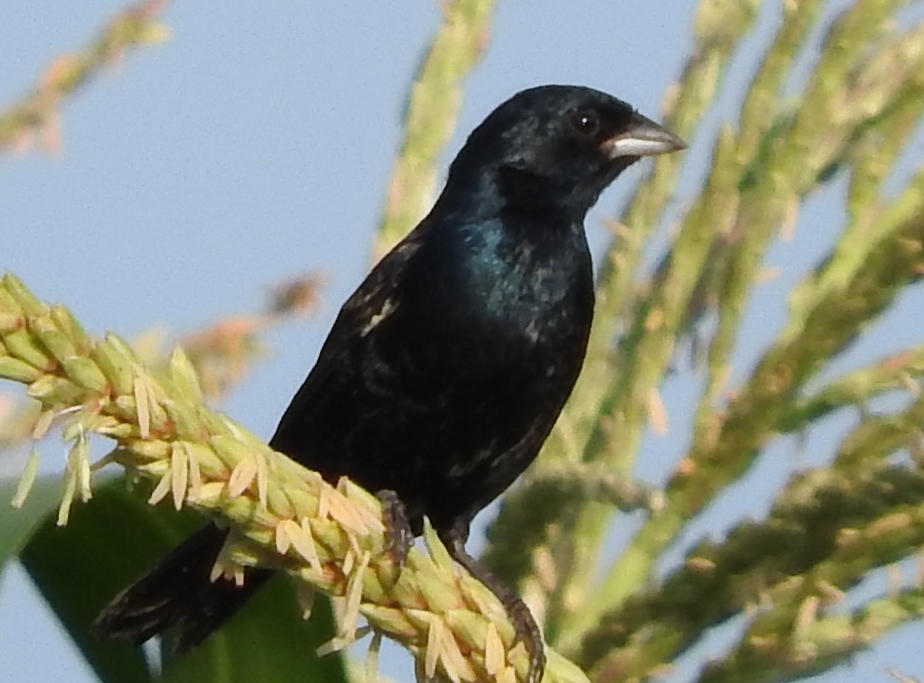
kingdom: Animalia
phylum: Chordata
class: Aves
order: Passeriformes
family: Thraupidae
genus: Volatinia
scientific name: Volatinia jacarina
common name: Blue-black grassquit
